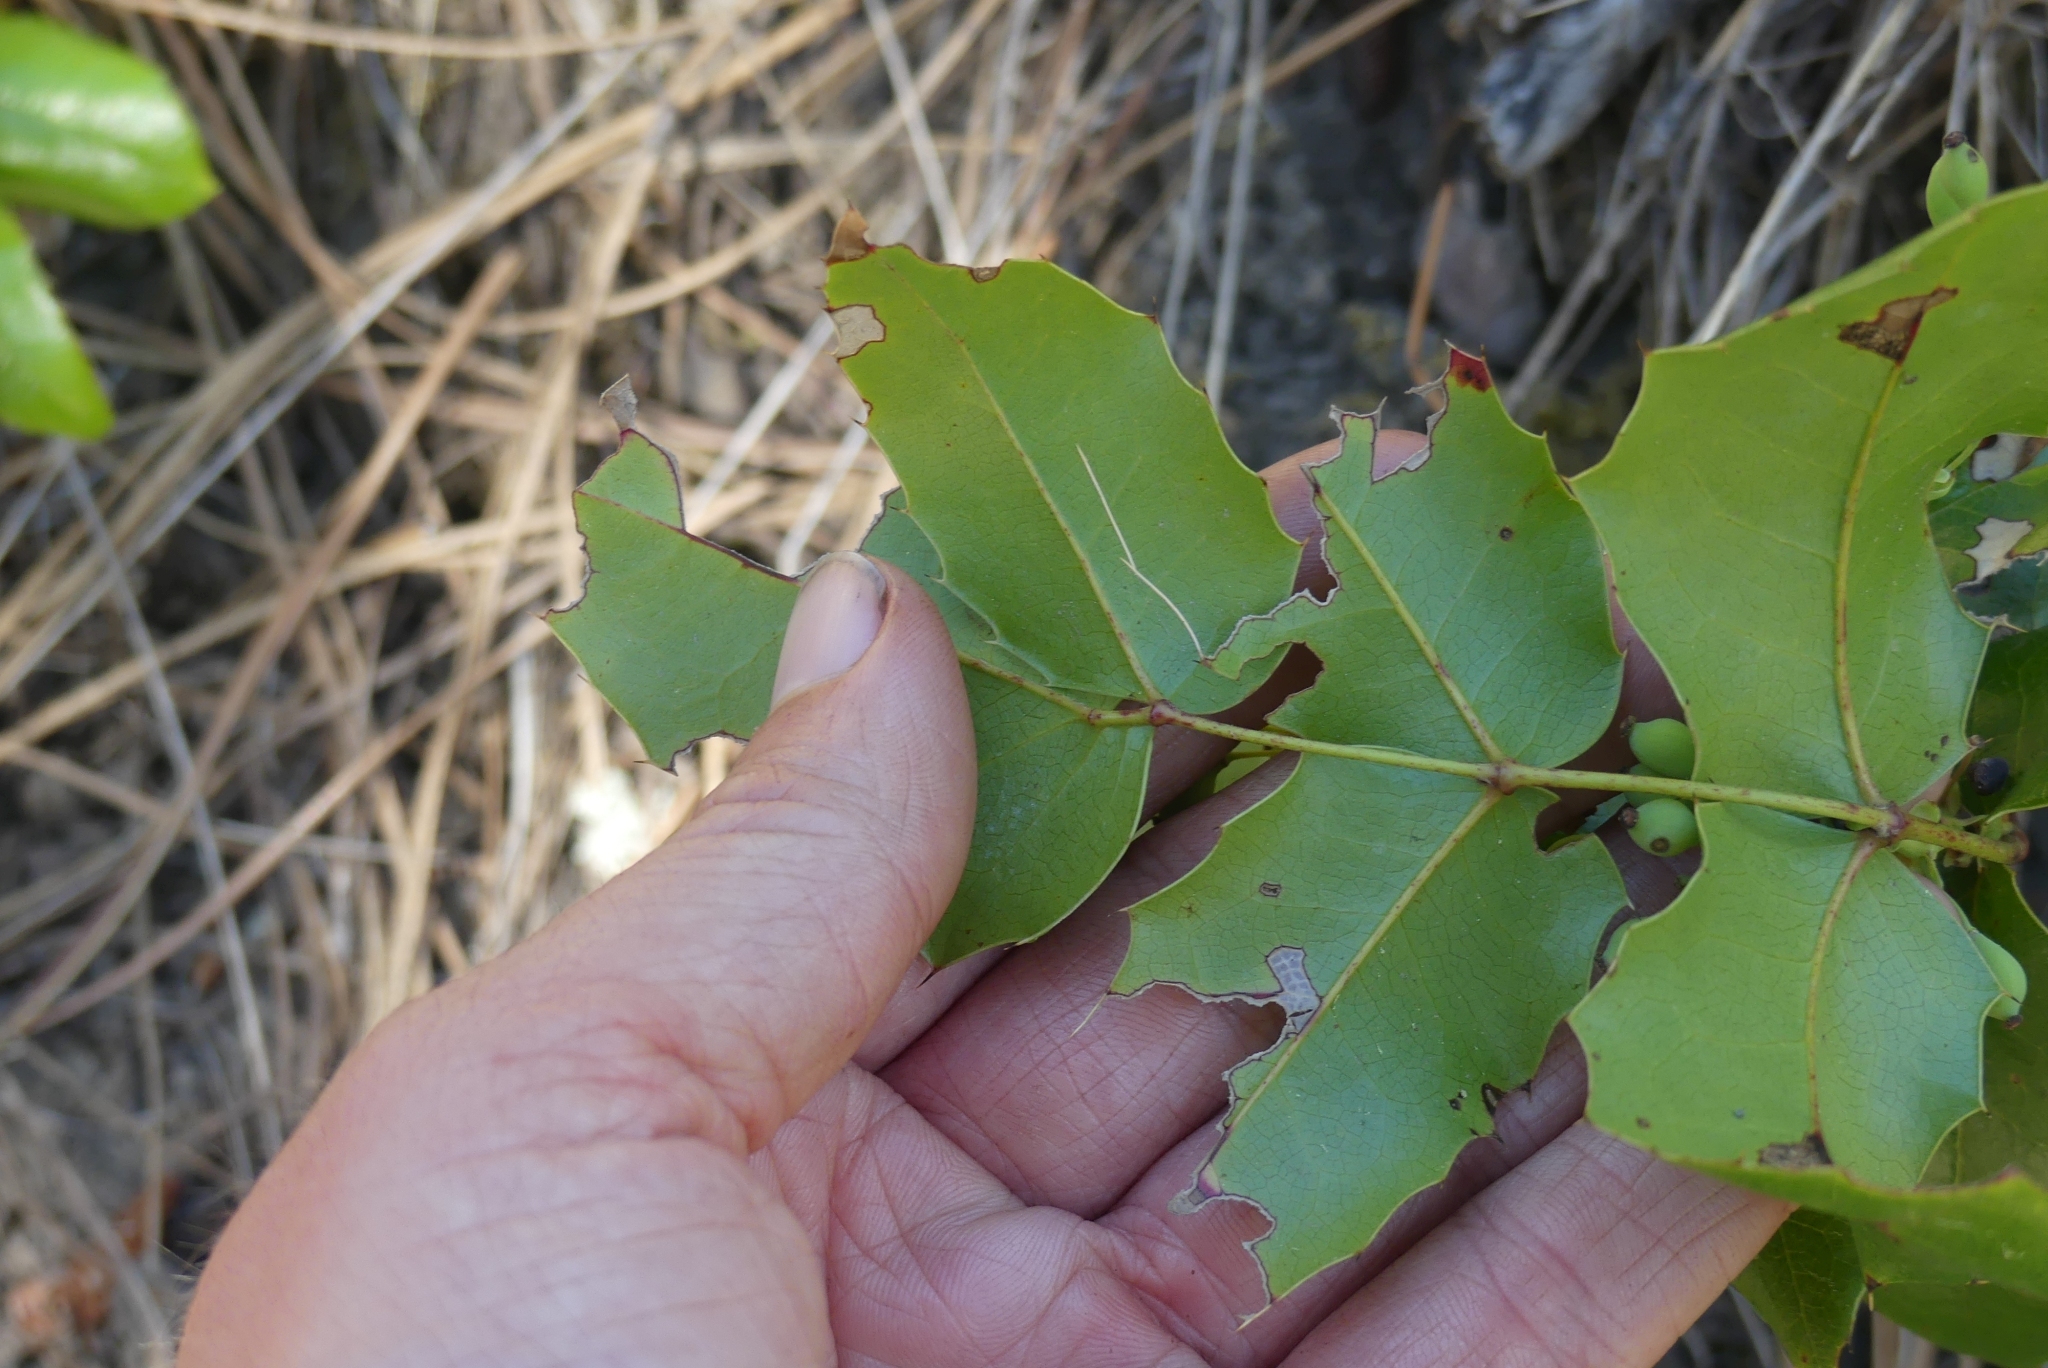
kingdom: Plantae
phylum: Tracheophyta
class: Magnoliopsida
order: Ranunculales
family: Berberidaceae
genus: Mahonia
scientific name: Mahonia aquifolium
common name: Oregon-grape
